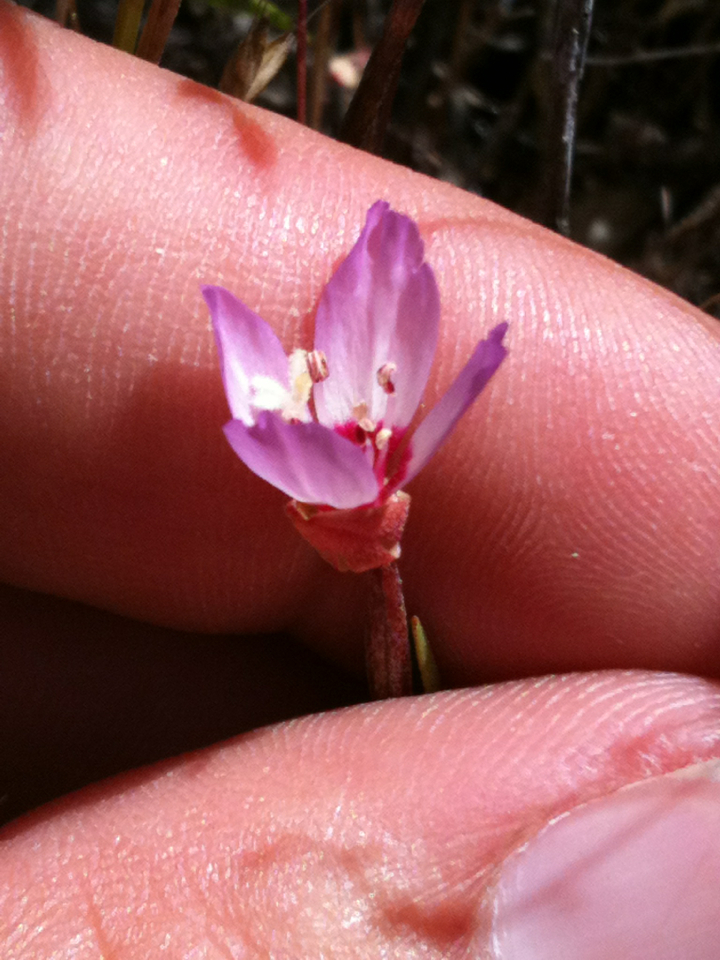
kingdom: Plantae
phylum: Tracheophyta
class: Magnoliopsida
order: Myrtales
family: Onagraceae
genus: Clarkia
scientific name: Clarkia franciscana
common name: Presidio clarkia
